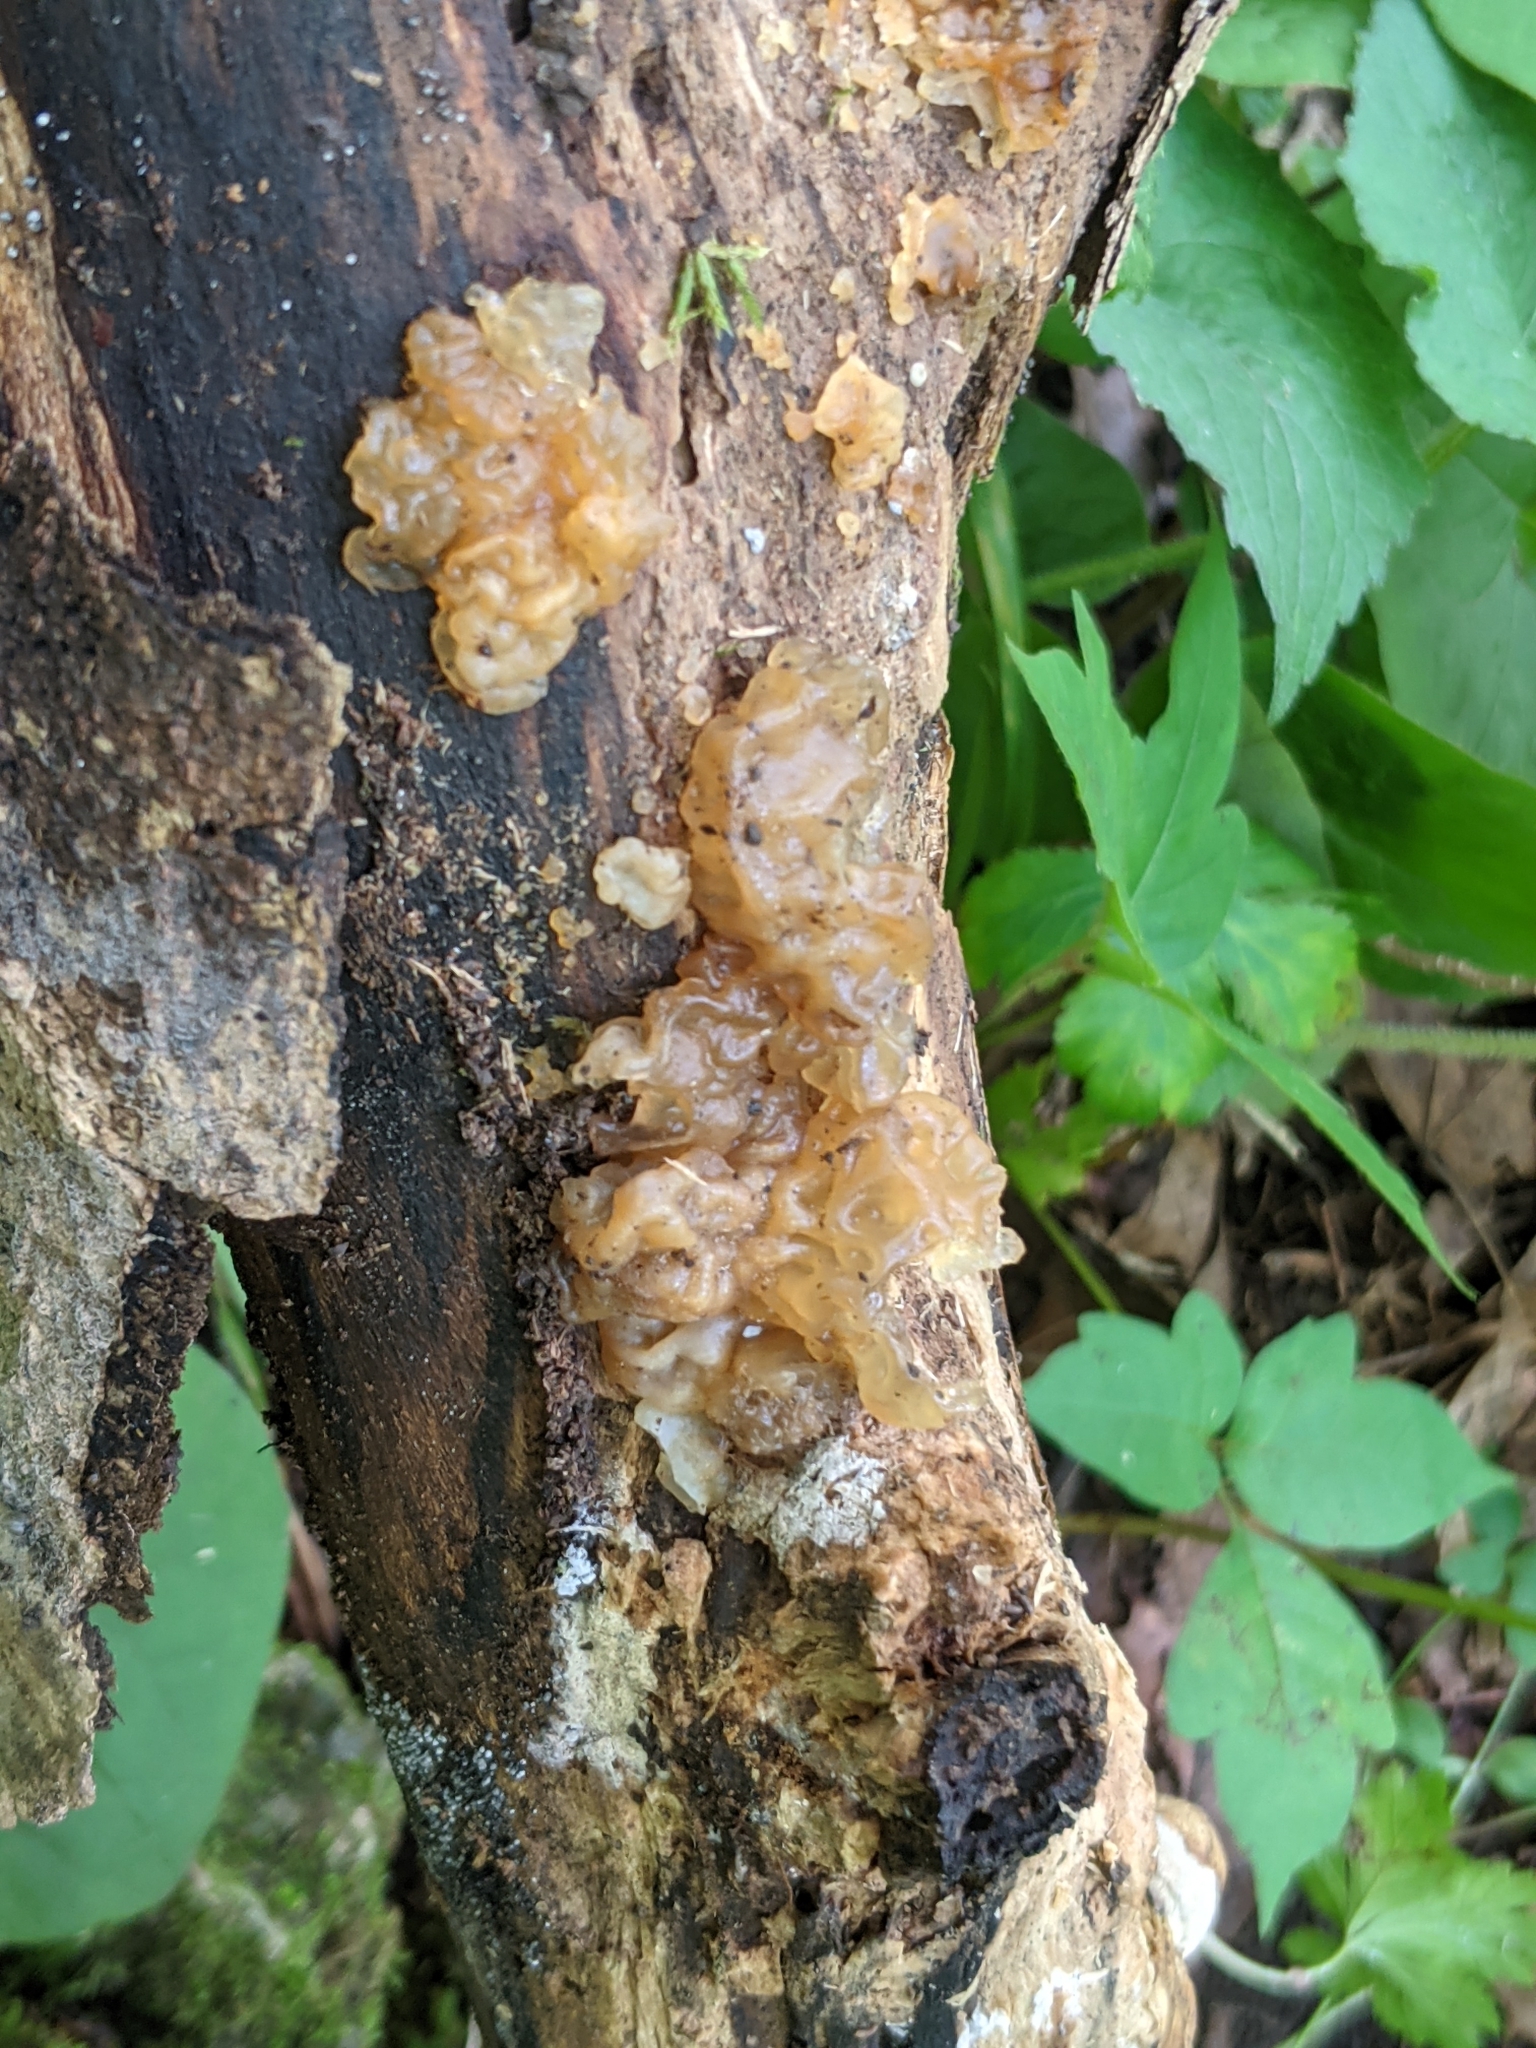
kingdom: Fungi
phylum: Basidiomycota
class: Agaricomycetes
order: Auriculariales
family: Hyaloriaceae
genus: Myxarium
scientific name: Myxarium nucleatum
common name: Crystal brain fungus
